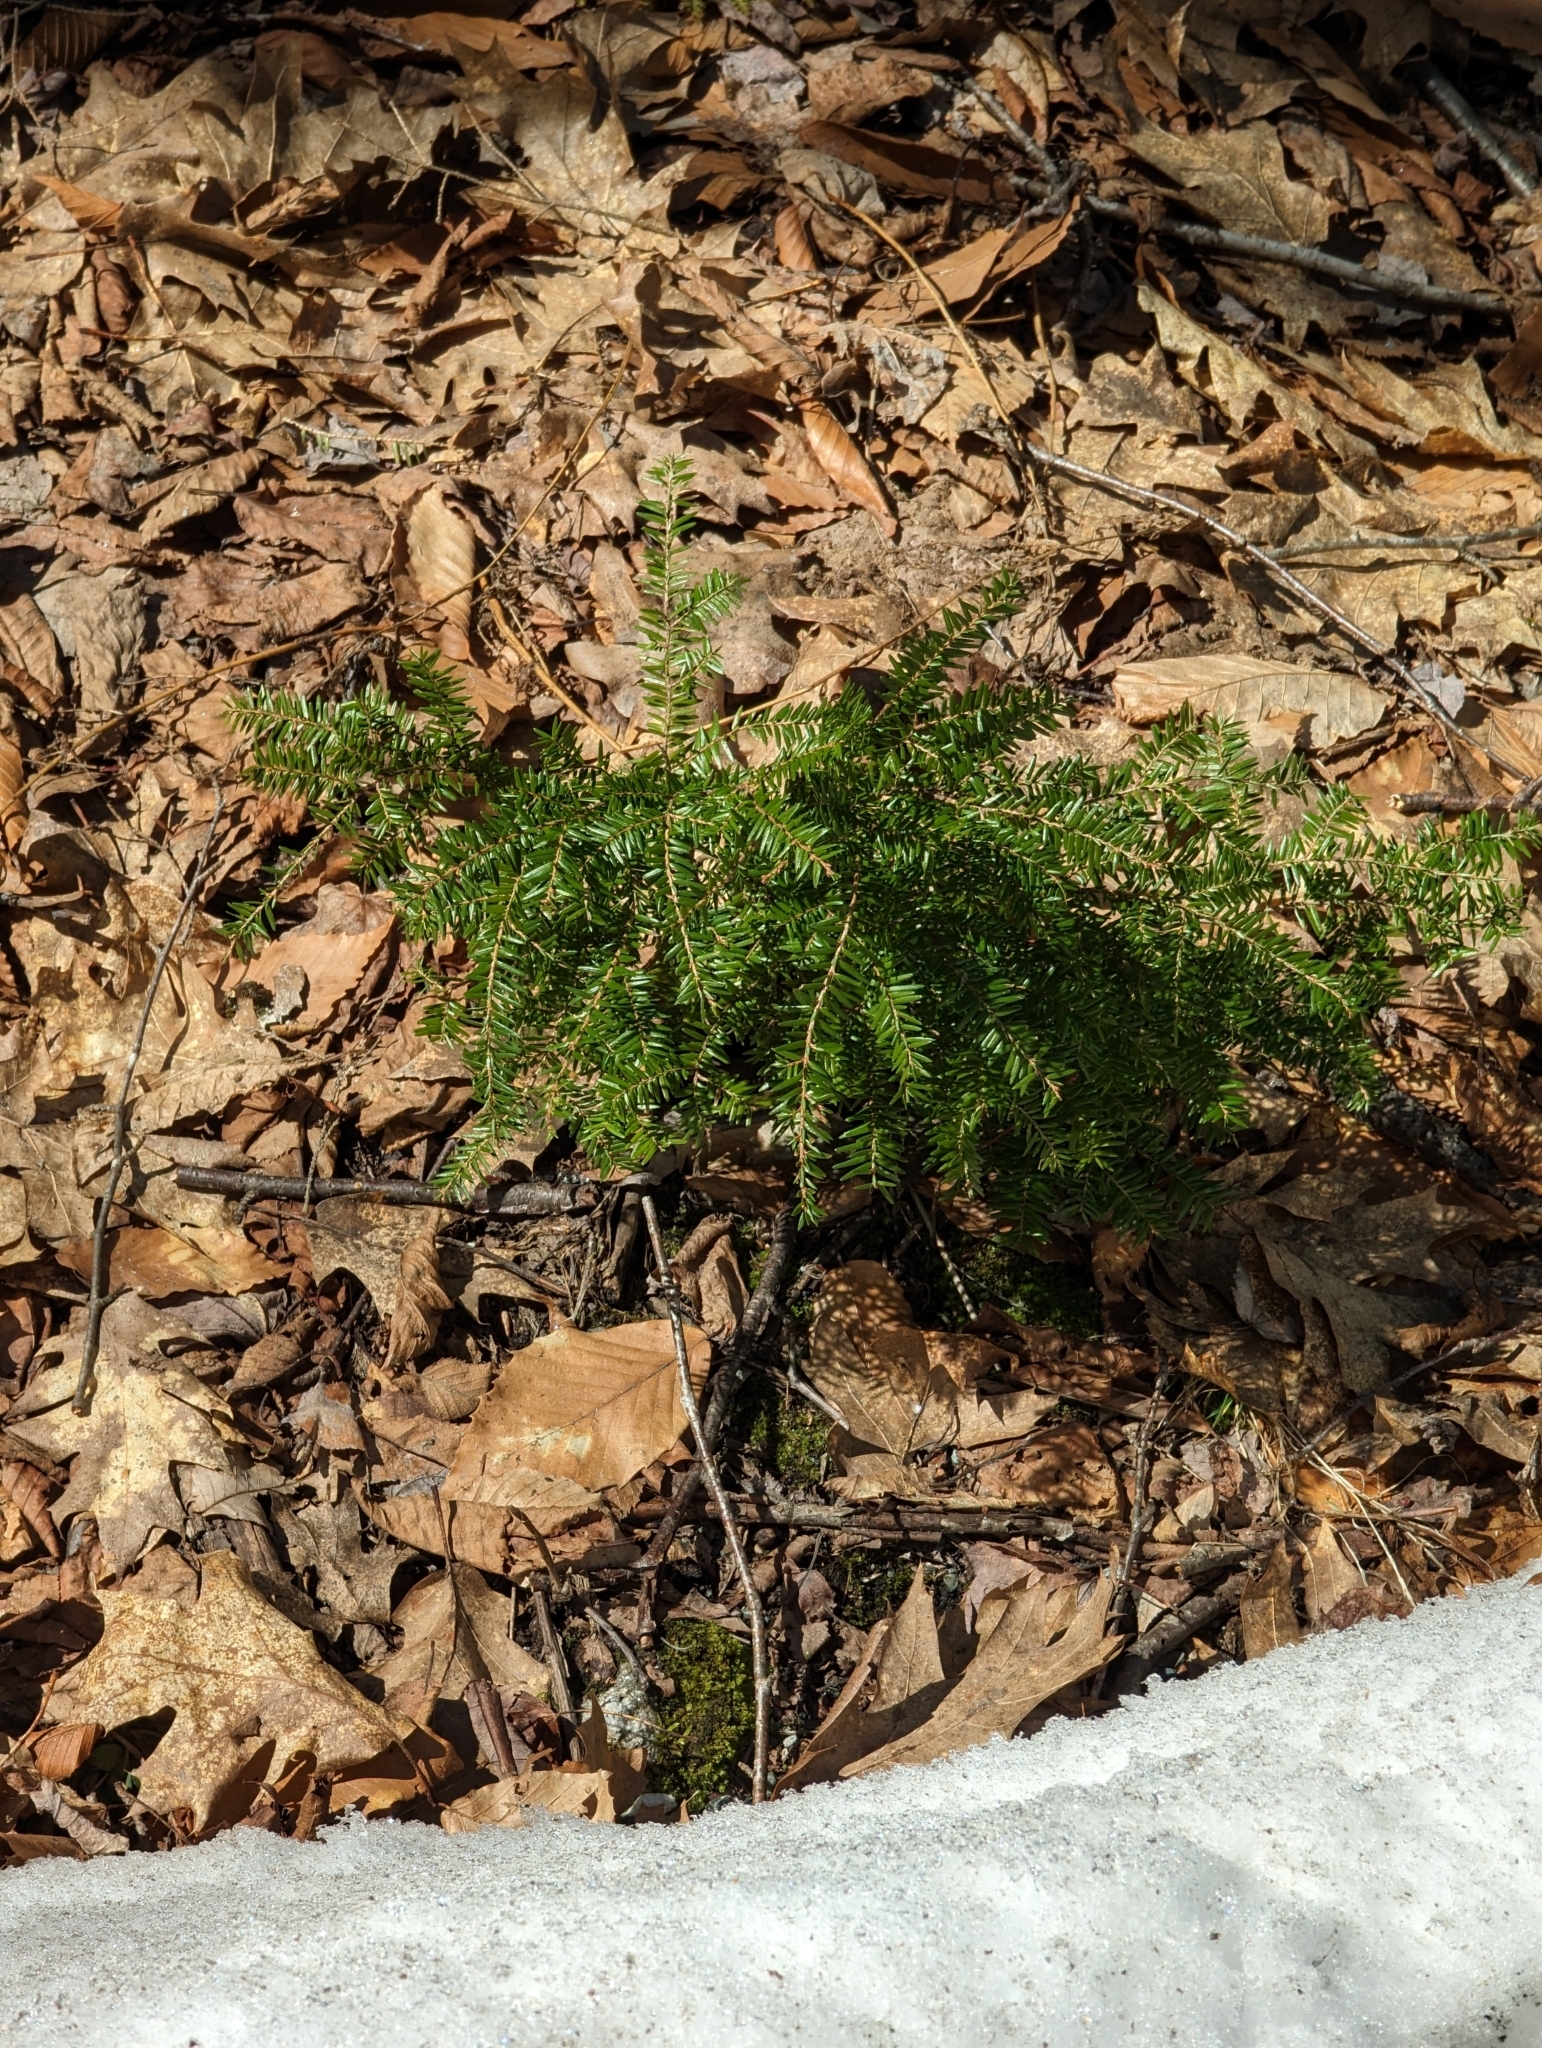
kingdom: Plantae
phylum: Tracheophyta
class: Pinopsida
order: Pinales
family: Pinaceae
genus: Tsuga
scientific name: Tsuga canadensis
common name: Eastern hemlock
